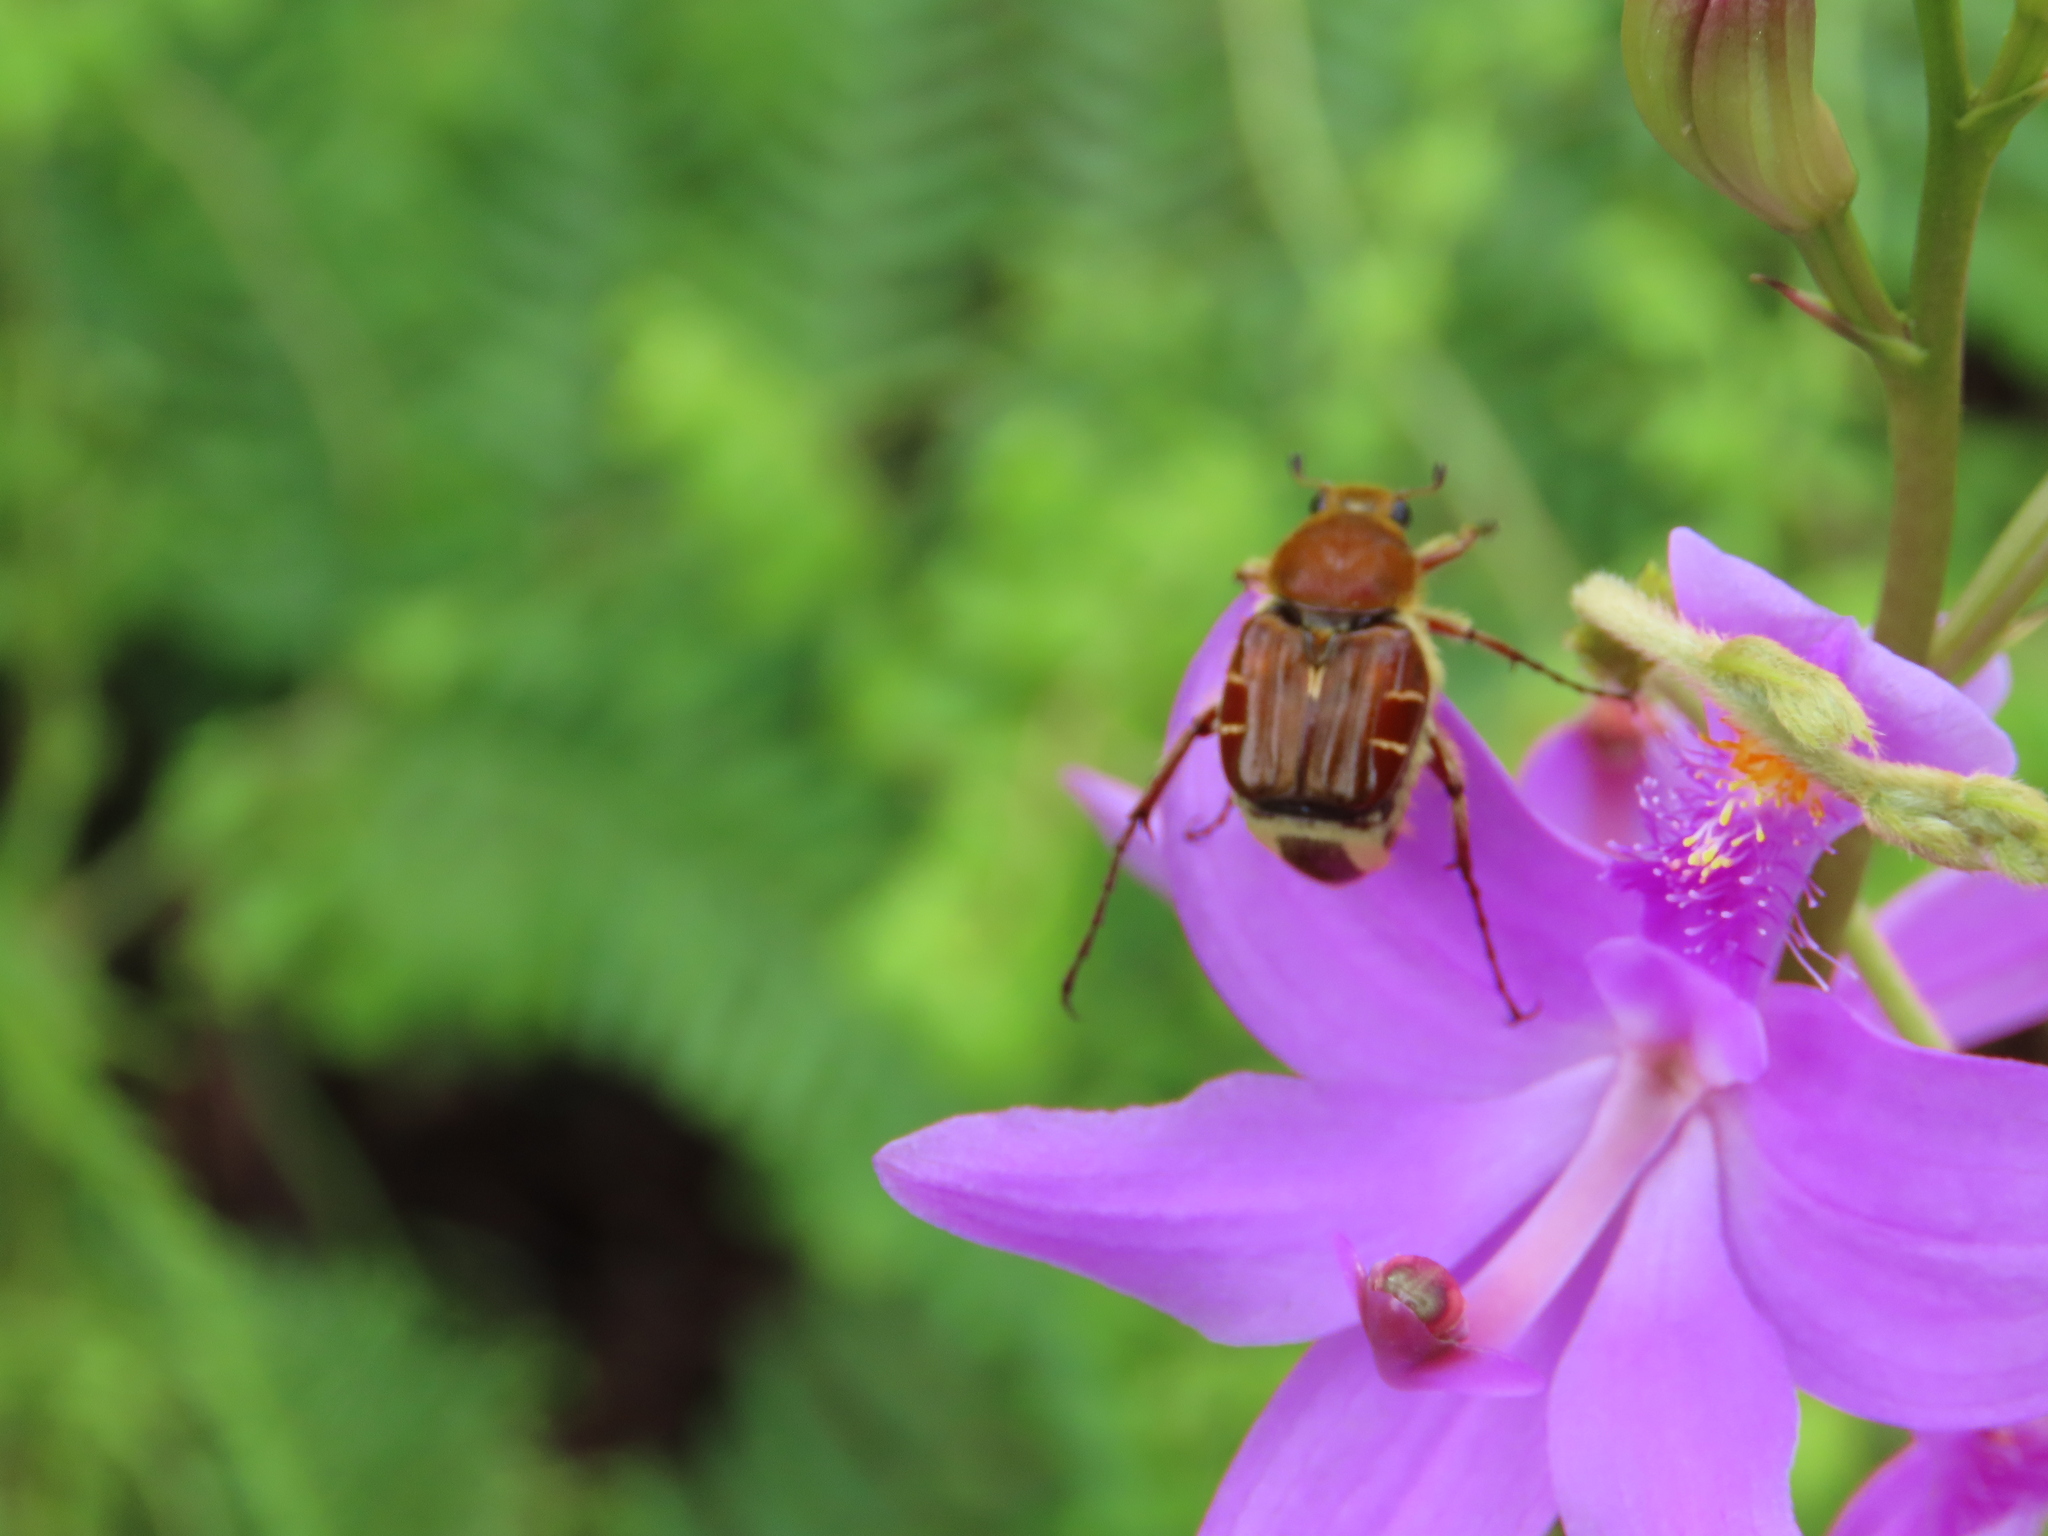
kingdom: Animalia
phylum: Arthropoda
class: Insecta
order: Coleoptera
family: Scarabaeidae
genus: Trichiotinus
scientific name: Trichiotinus rufobrunneus
